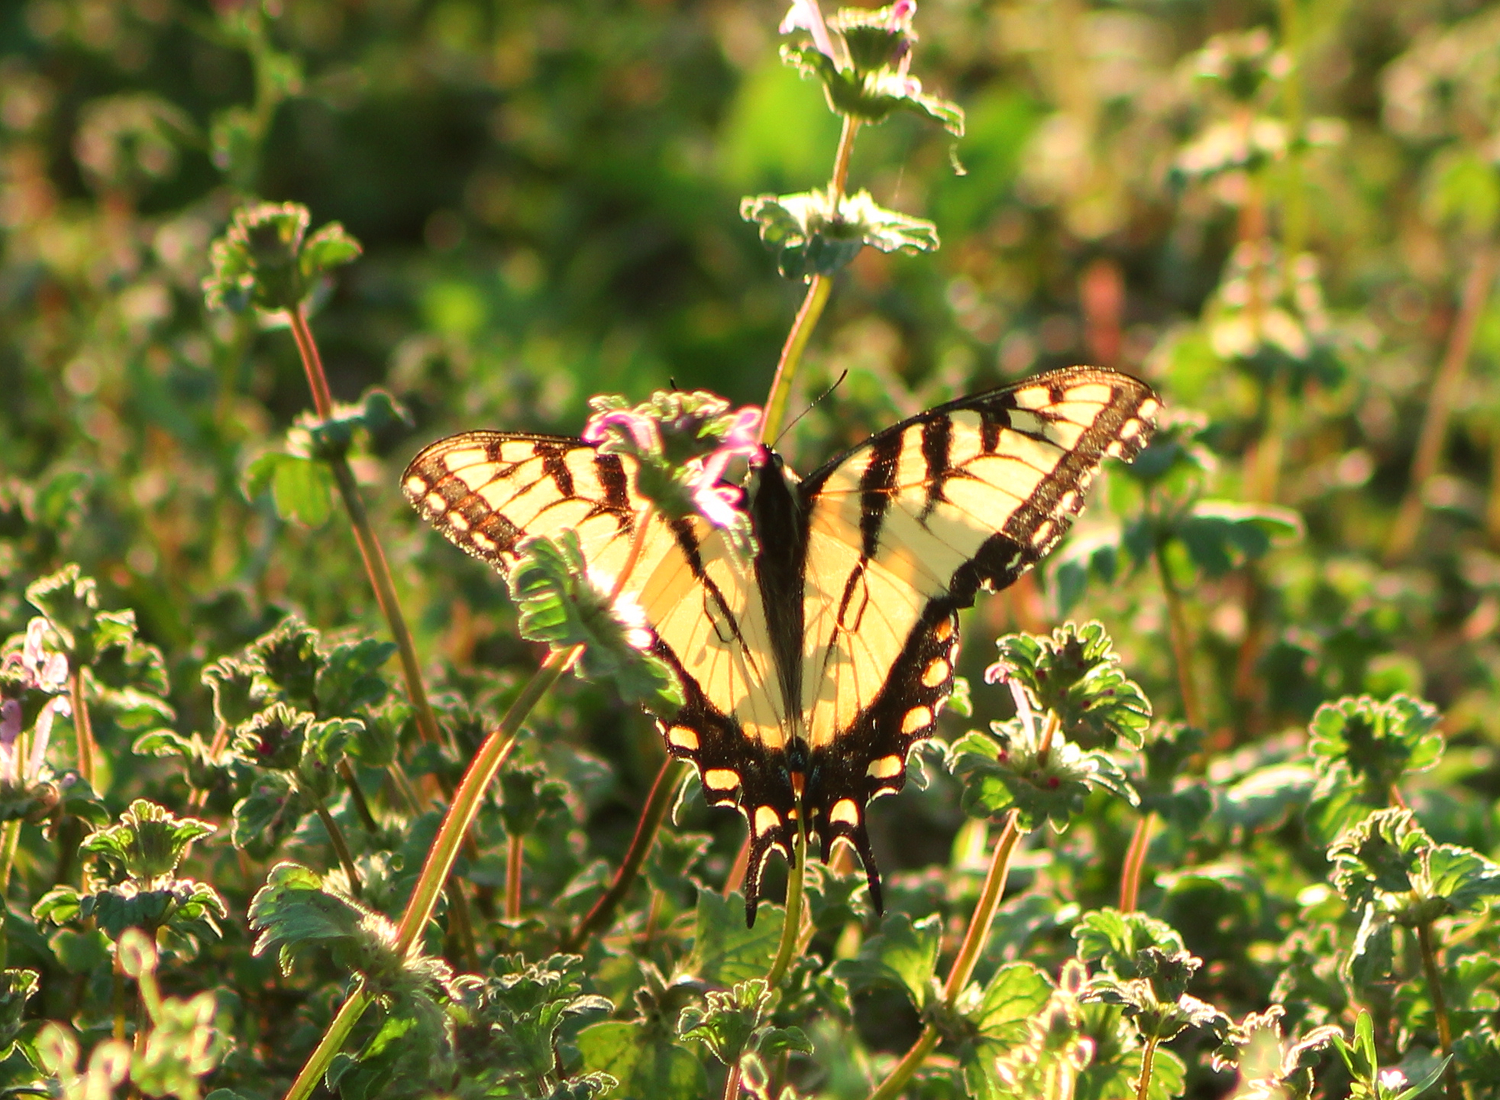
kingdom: Animalia
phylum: Arthropoda
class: Insecta
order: Lepidoptera
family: Papilionidae
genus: Papilio
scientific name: Papilio glaucus
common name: Tiger swallowtail
